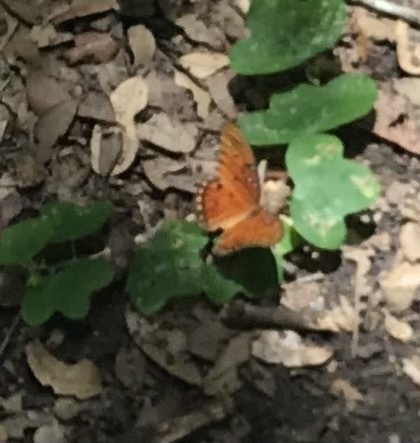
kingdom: Animalia
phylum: Arthropoda
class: Insecta
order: Lepidoptera
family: Nymphalidae
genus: Dione
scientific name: Dione vanillae
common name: Gulf fritillary
